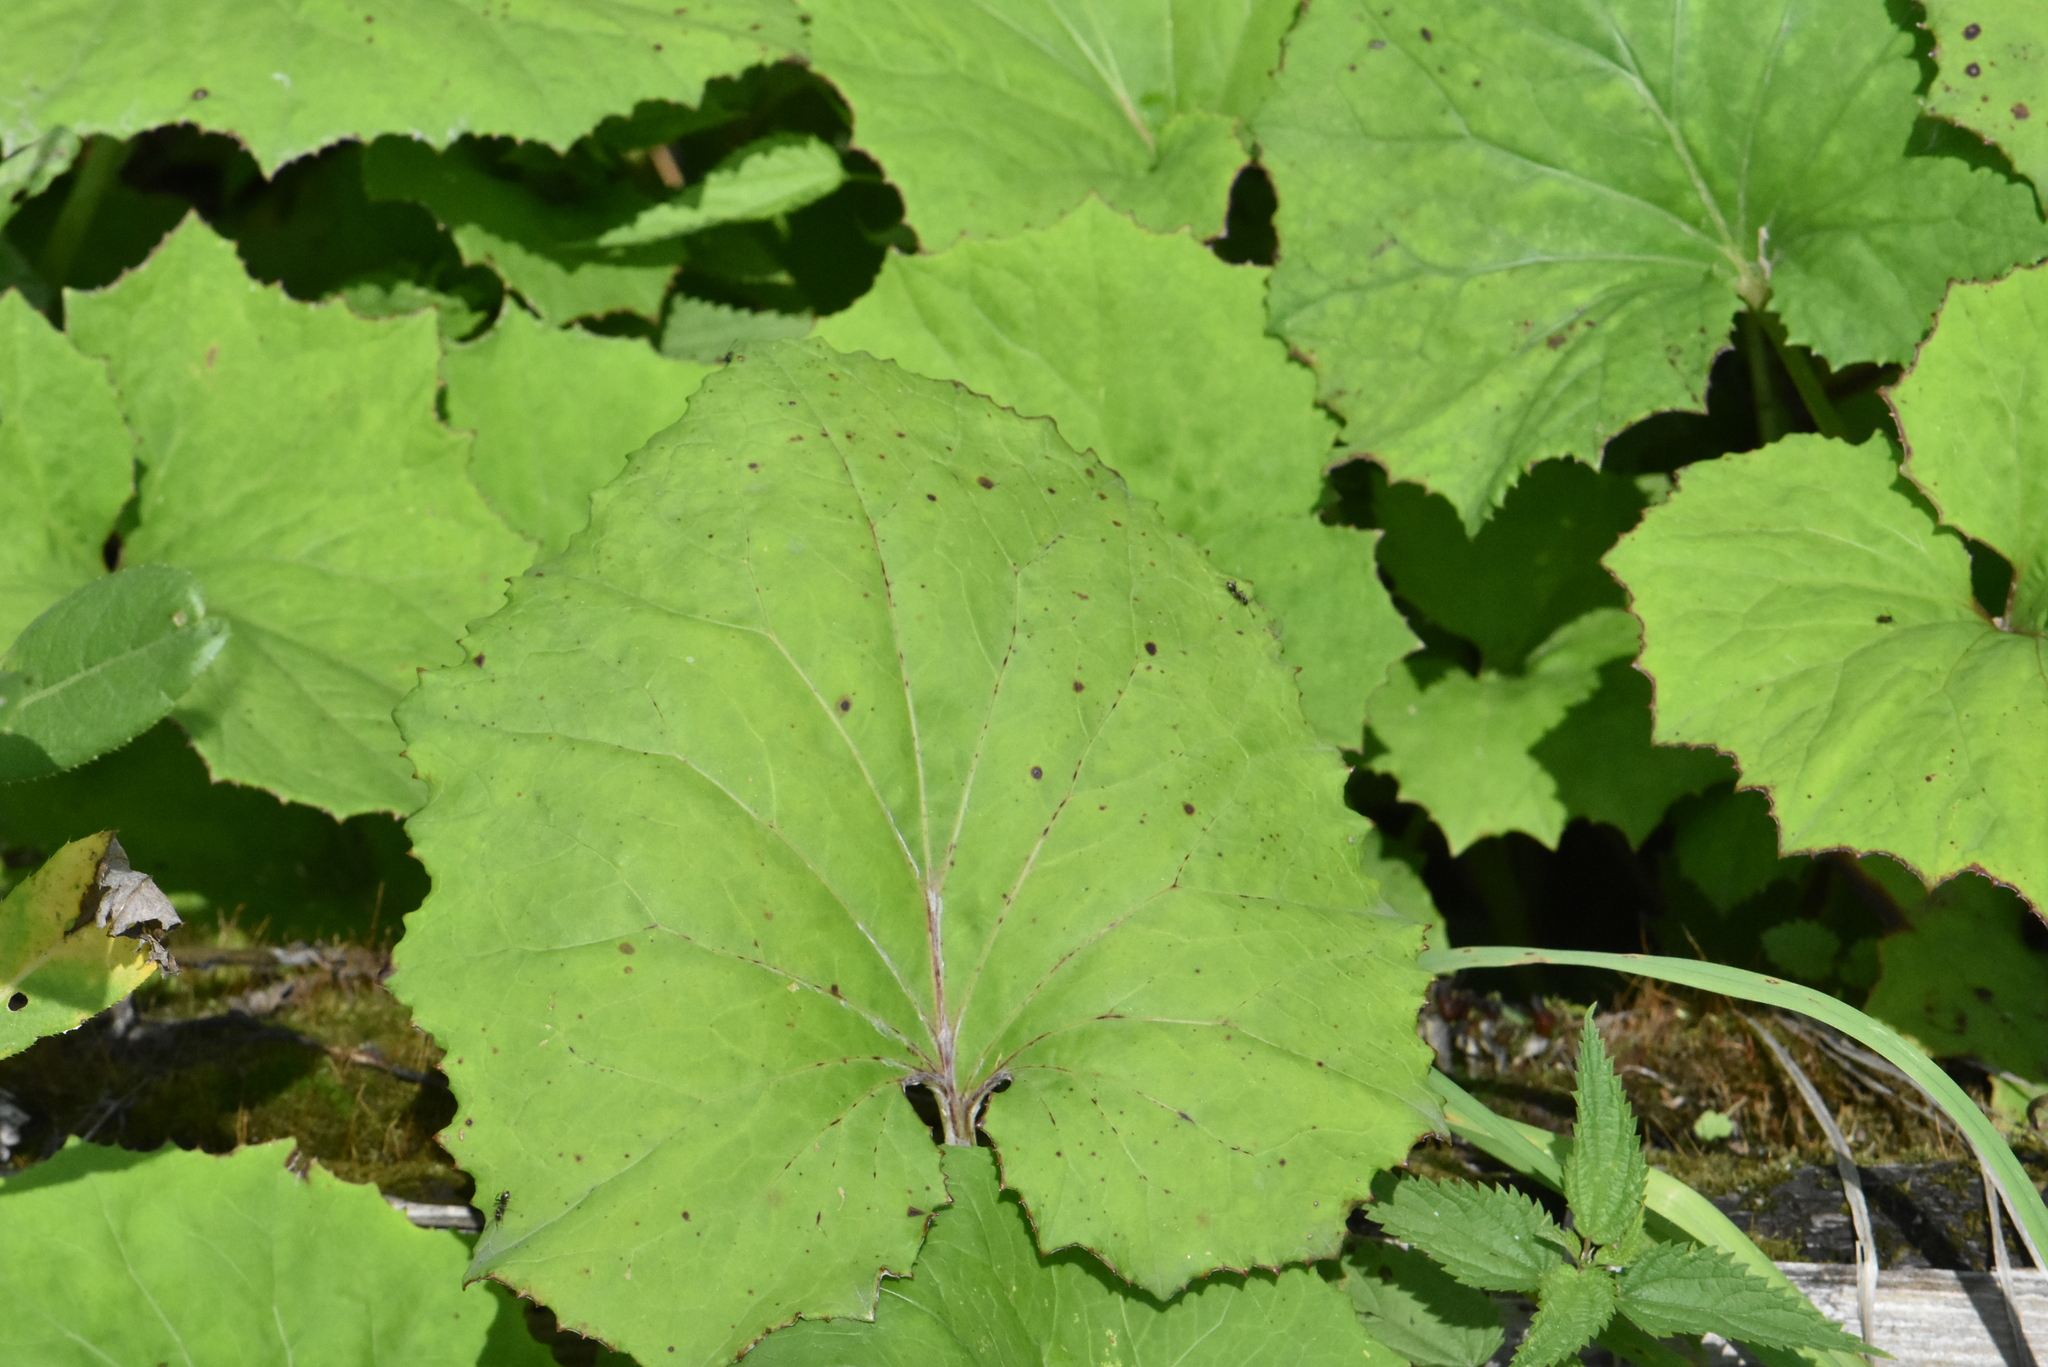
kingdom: Plantae
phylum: Tracheophyta
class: Magnoliopsida
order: Asterales
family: Asteraceae
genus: Tussilago
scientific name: Tussilago farfara
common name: Coltsfoot
